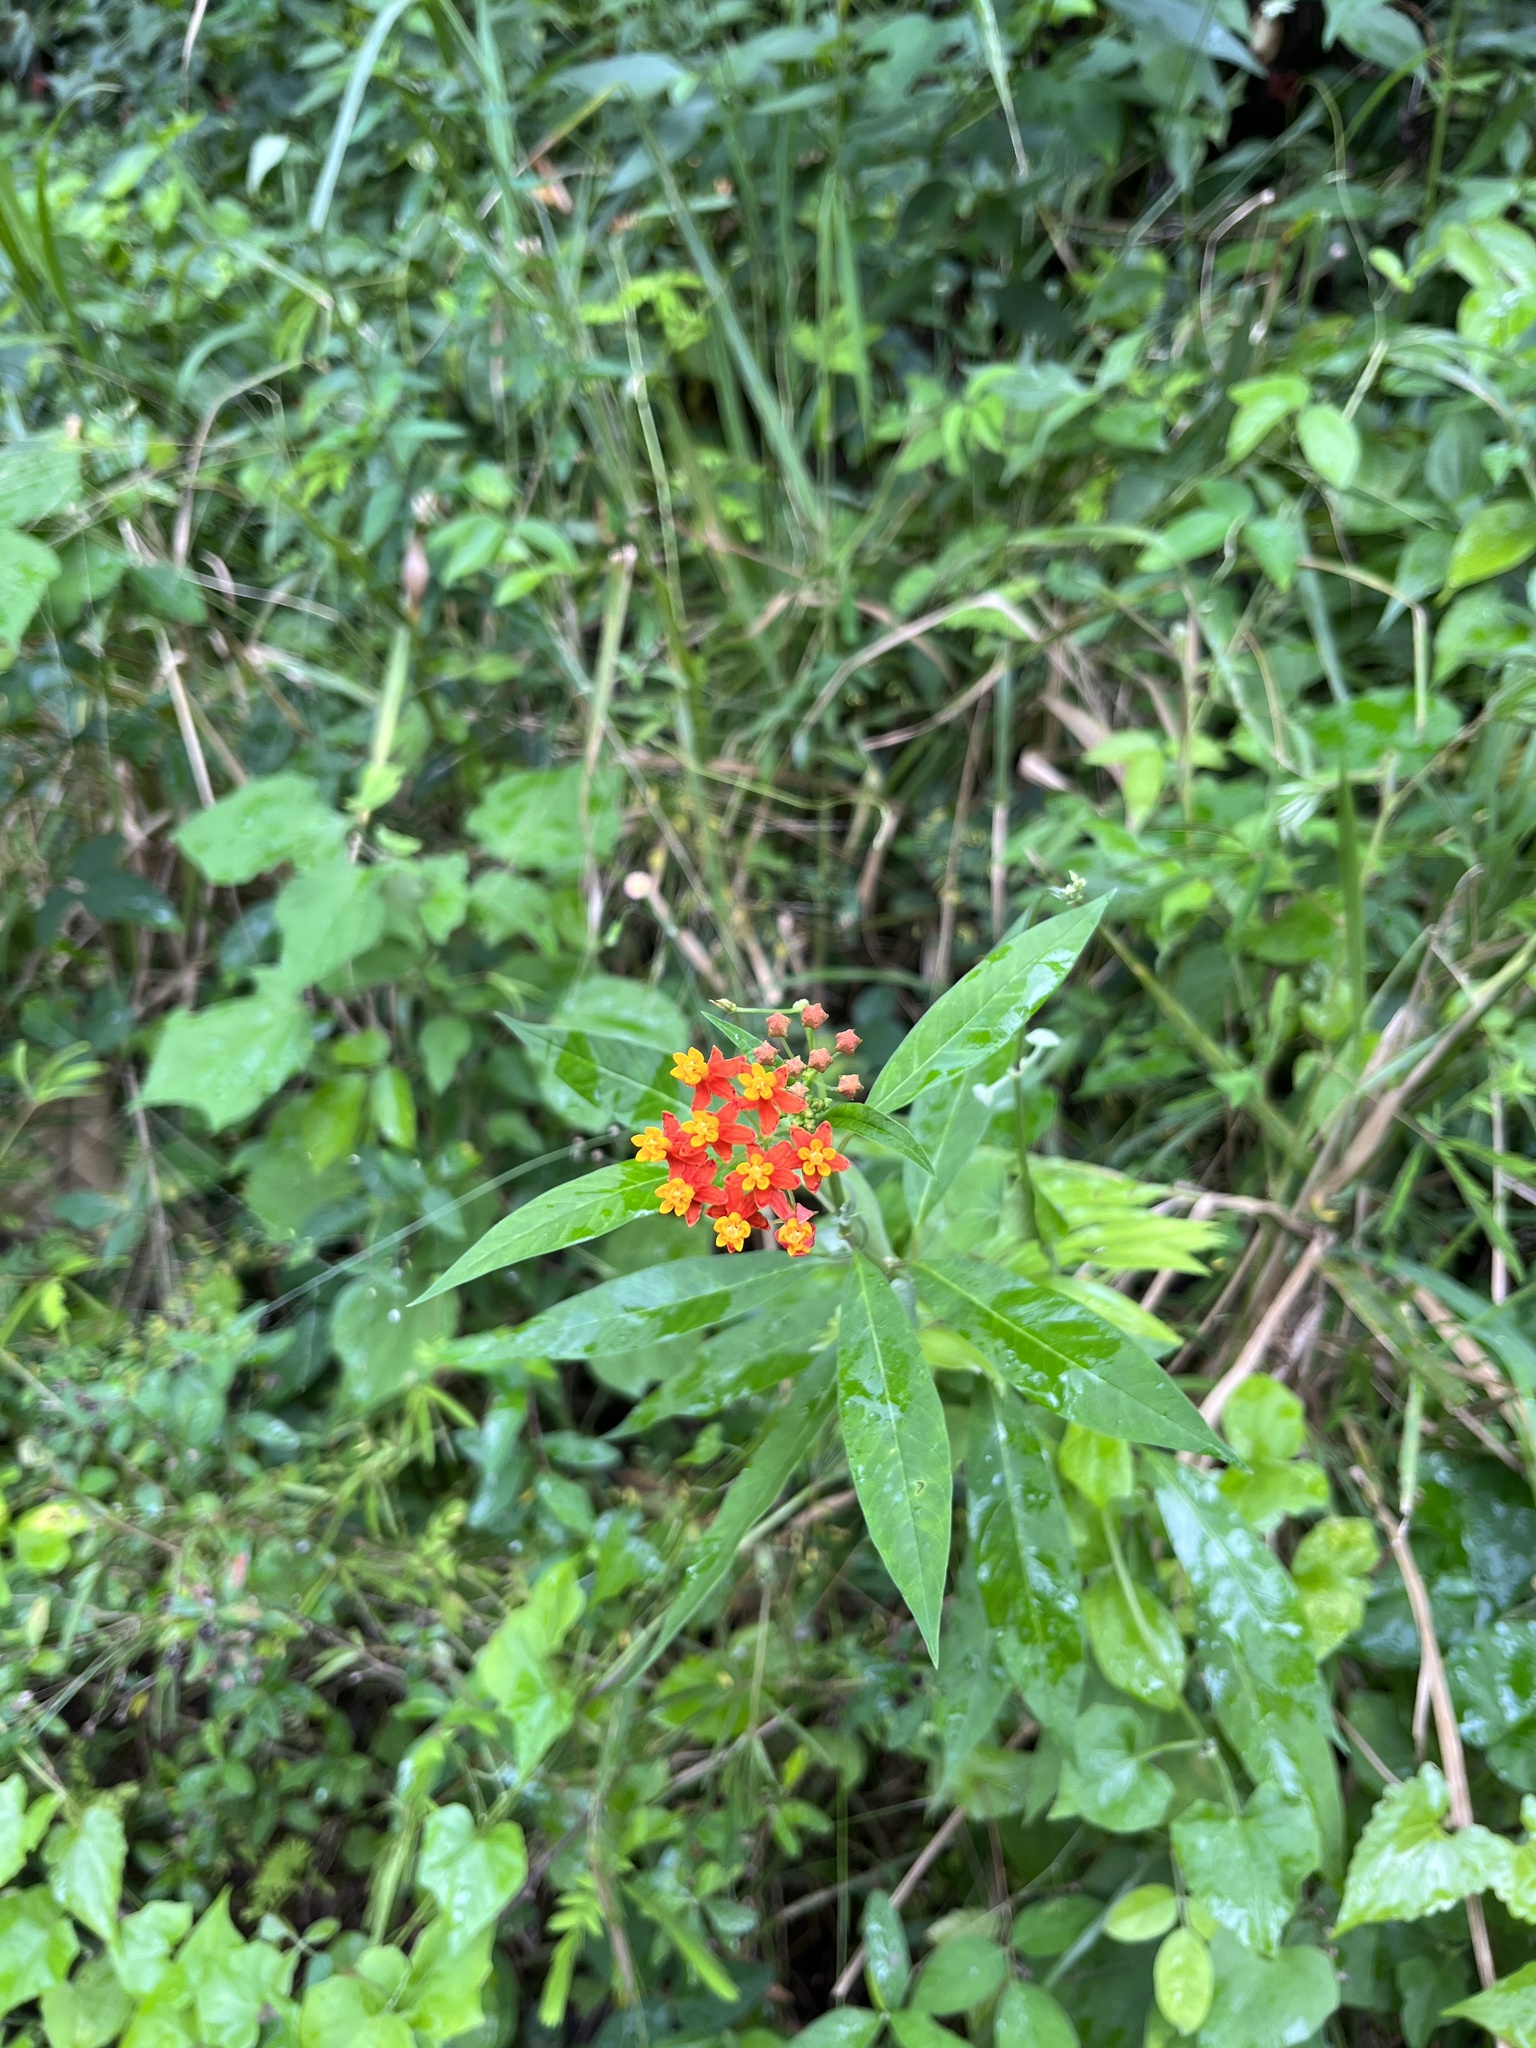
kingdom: Plantae
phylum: Tracheophyta
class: Magnoliopsida
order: Gentianales
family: Apocynaceae
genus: Asclepias
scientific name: Asclepias curassavica
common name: Bloodflower
